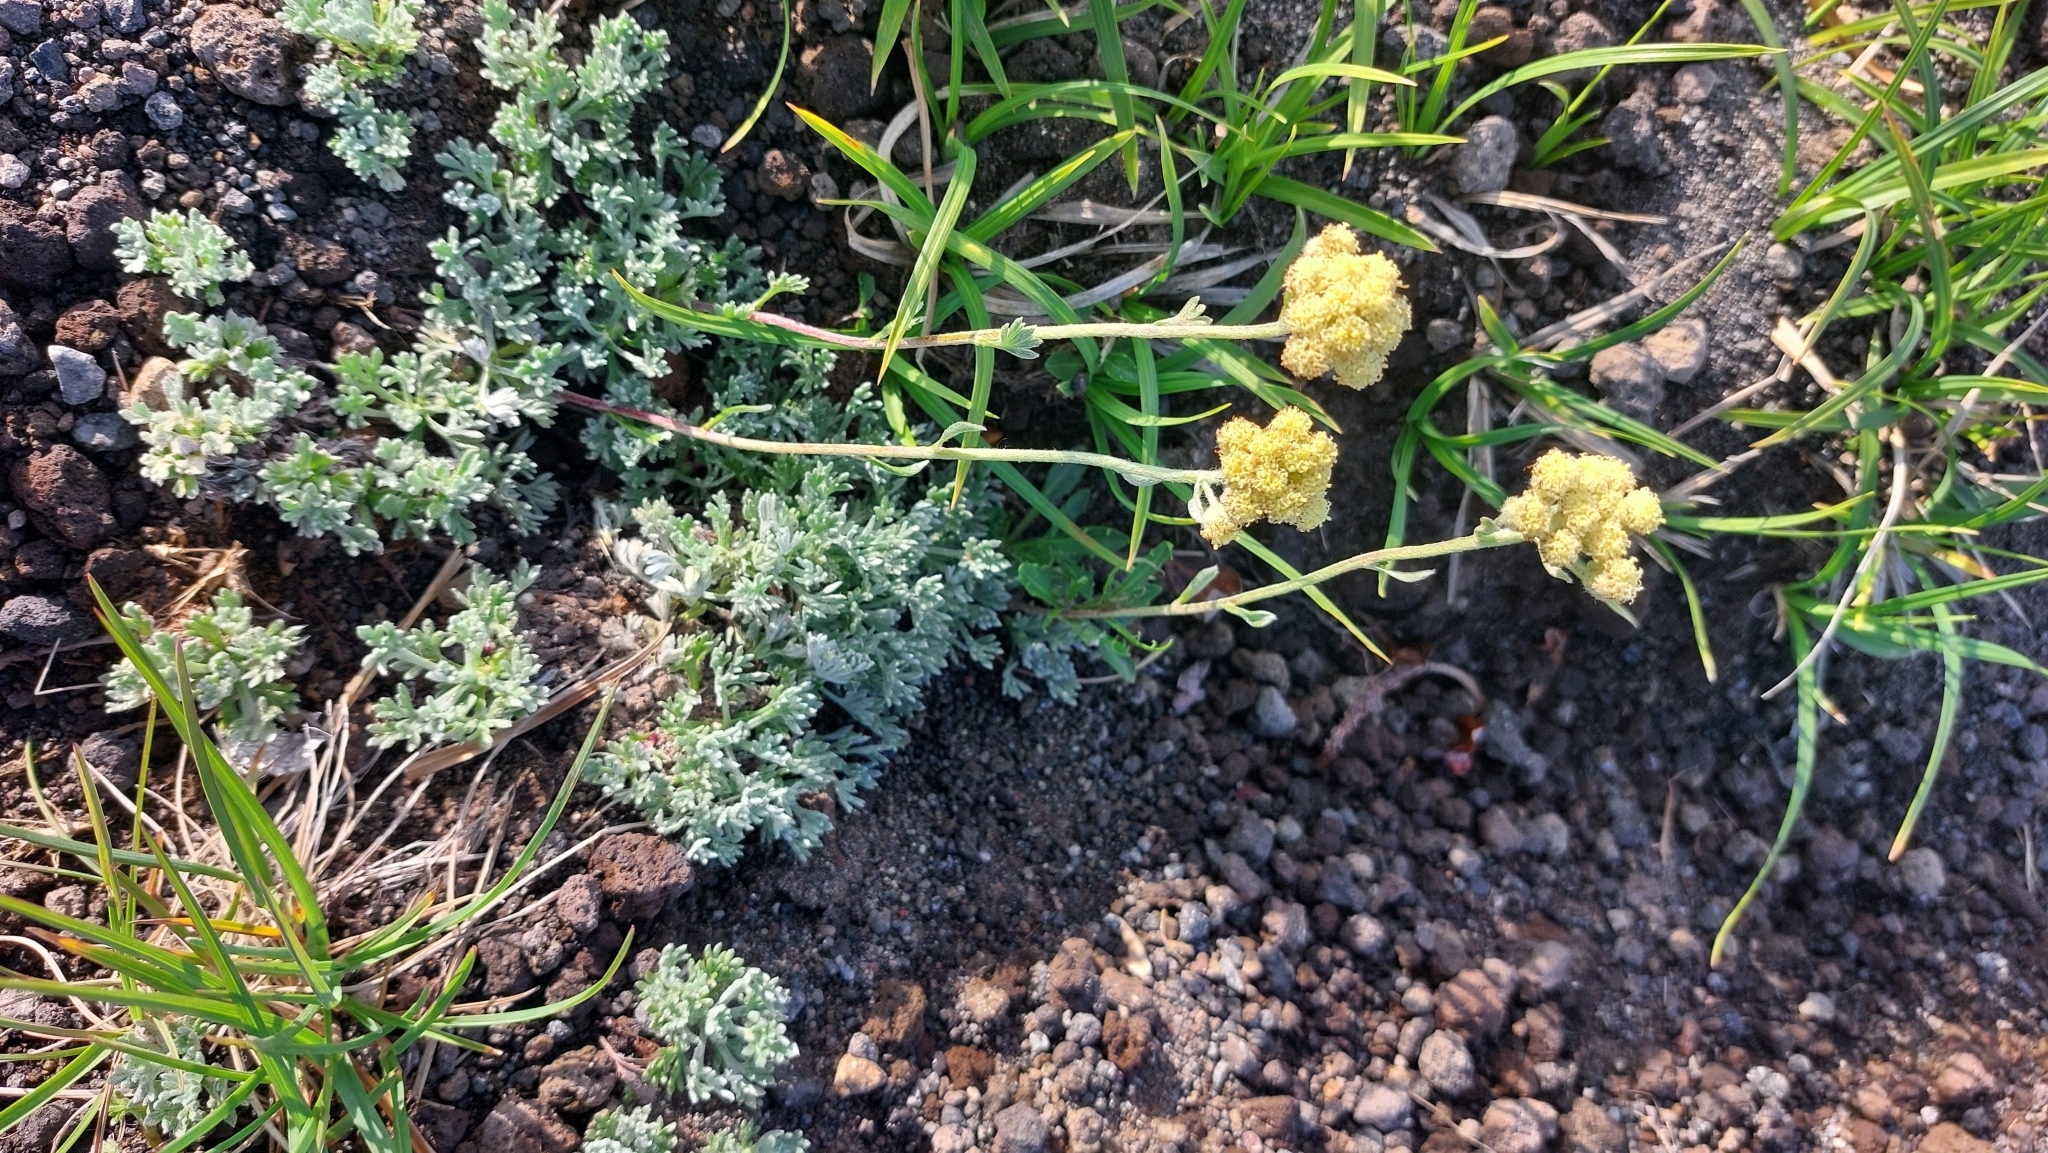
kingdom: Plantae
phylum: Tracheophyta
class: Magnoliopsida
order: Asterales
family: Asteraceae
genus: Artemisia
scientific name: Artemisia glomerata
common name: Pacific alpine wormwood
